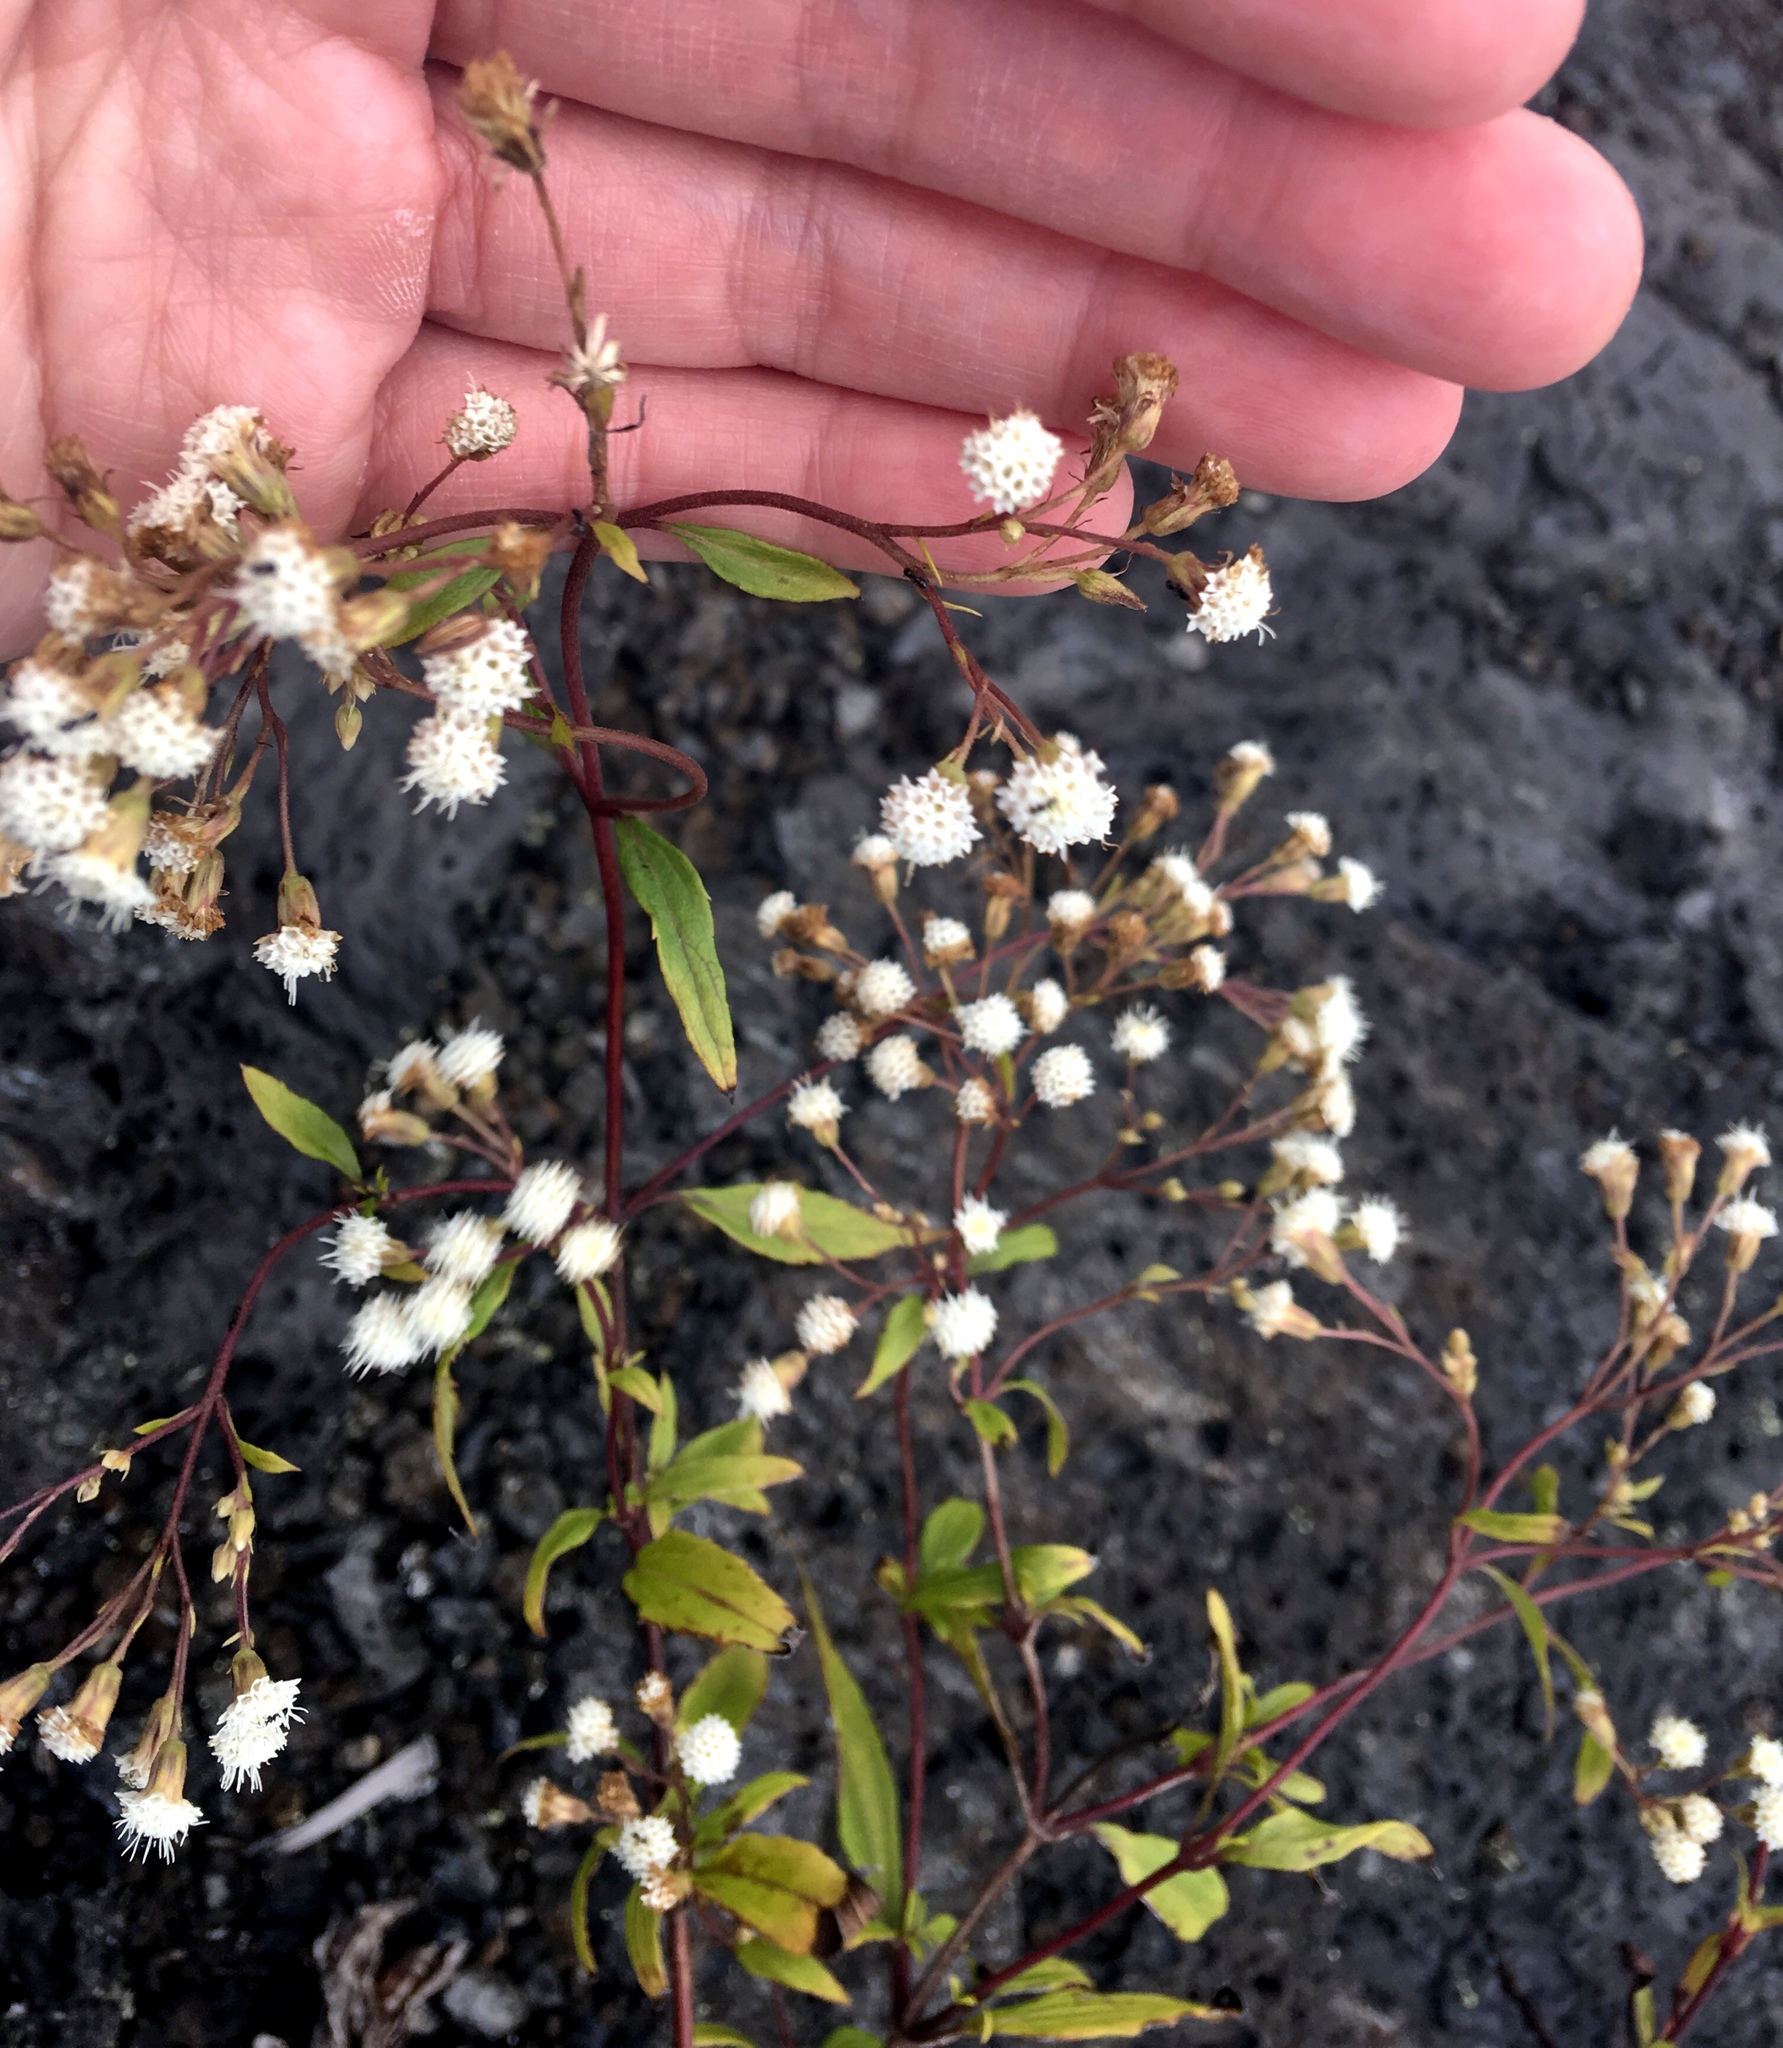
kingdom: Plantae
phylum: Tracheophyta
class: Magnoliopsida
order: Asterales
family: Asteraceae
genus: Ageratina
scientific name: Ageratina riparia
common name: Creeping croftonweed
